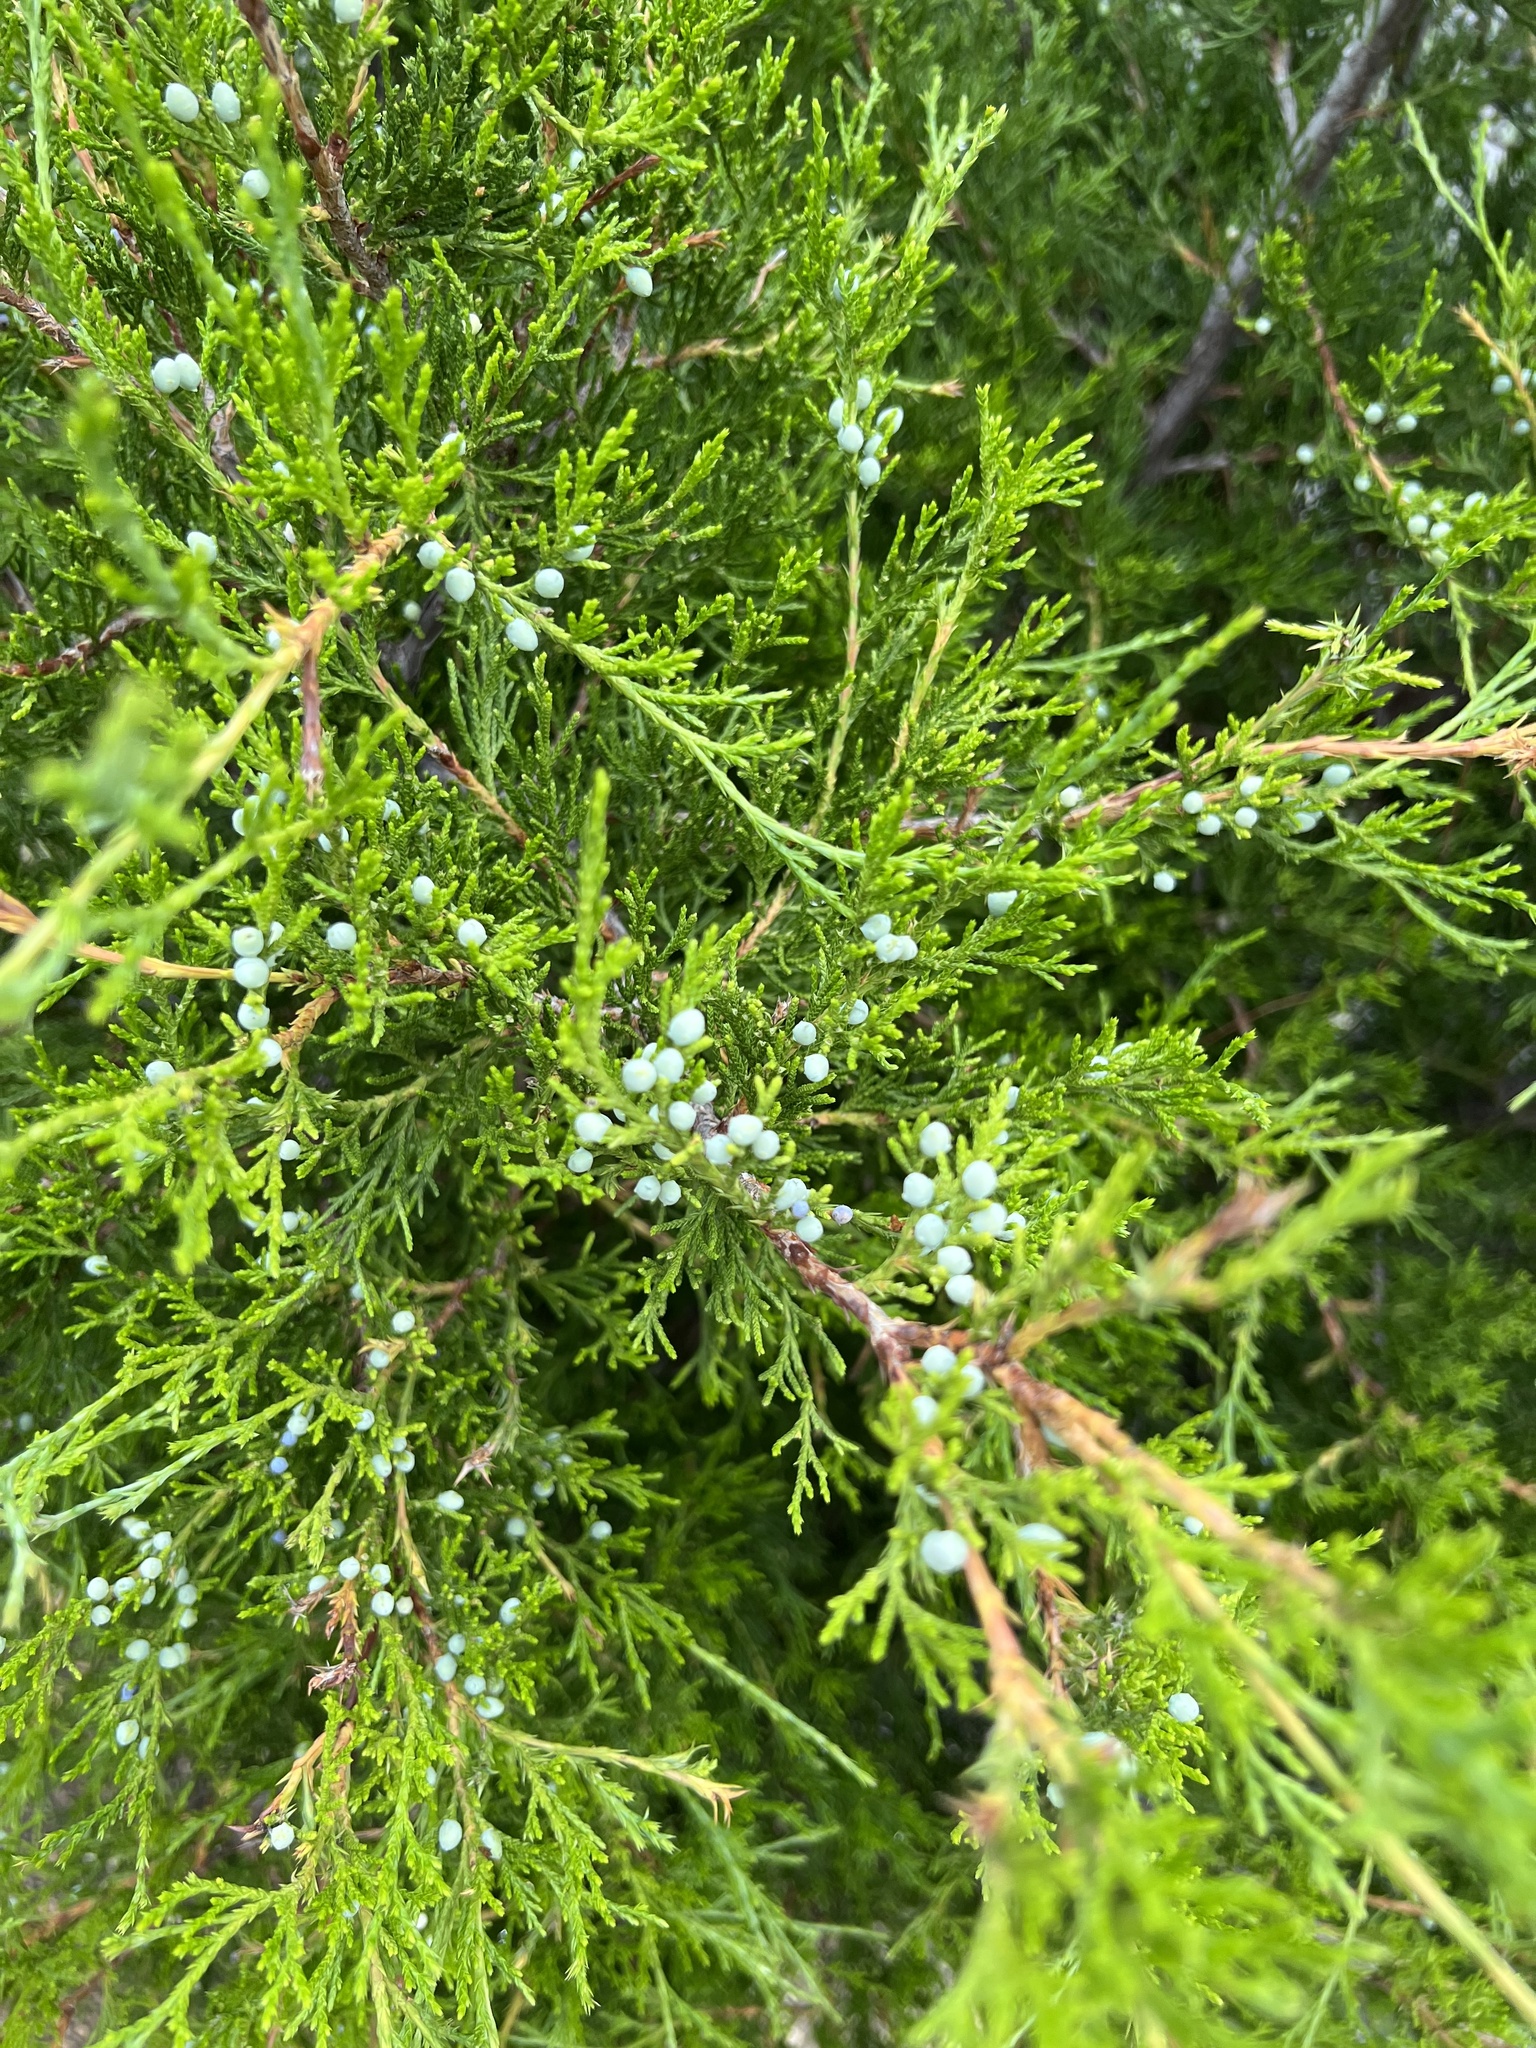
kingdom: Plantae
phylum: Tracheophyta
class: Pinopsida
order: Pinales
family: Cupressaceae
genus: Juniperus
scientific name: Juniperus virginiana
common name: Red juniper
